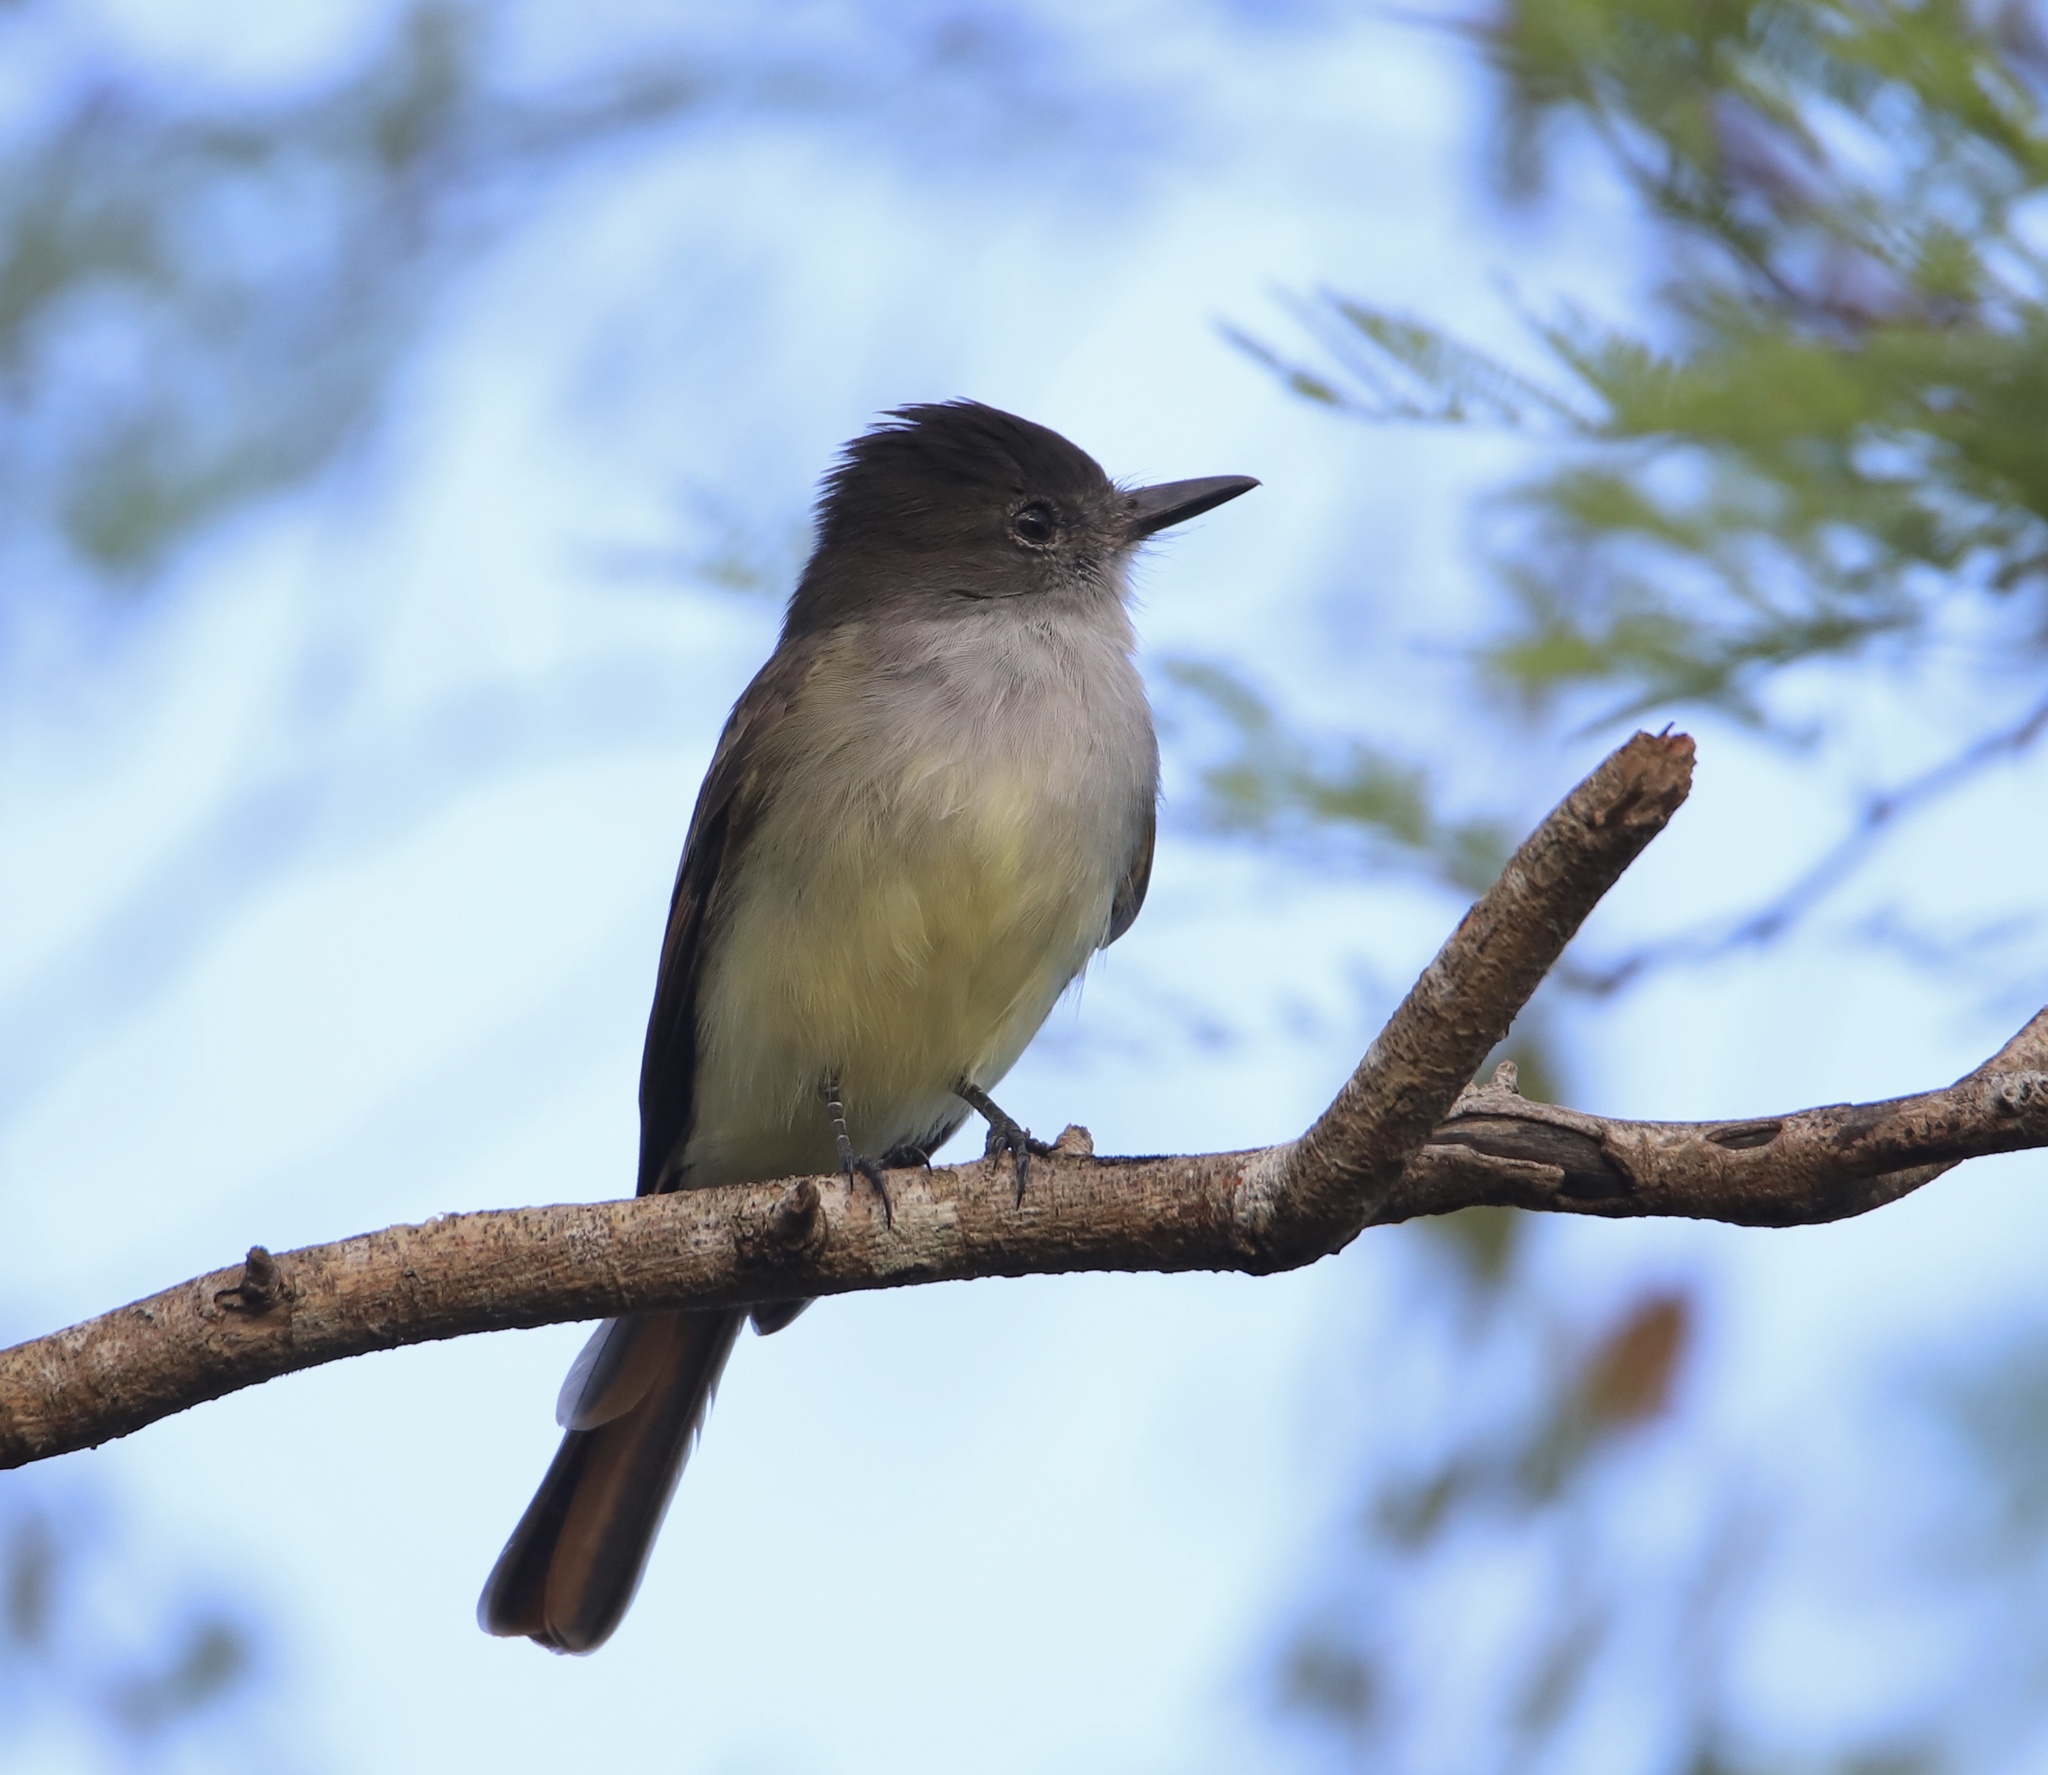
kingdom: Animalia
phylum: Chordata
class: Aves
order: Passeriformes
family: Tyrannidae
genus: Myiarchus
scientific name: Myiarchus stolidus
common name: Stolid flycatcher
